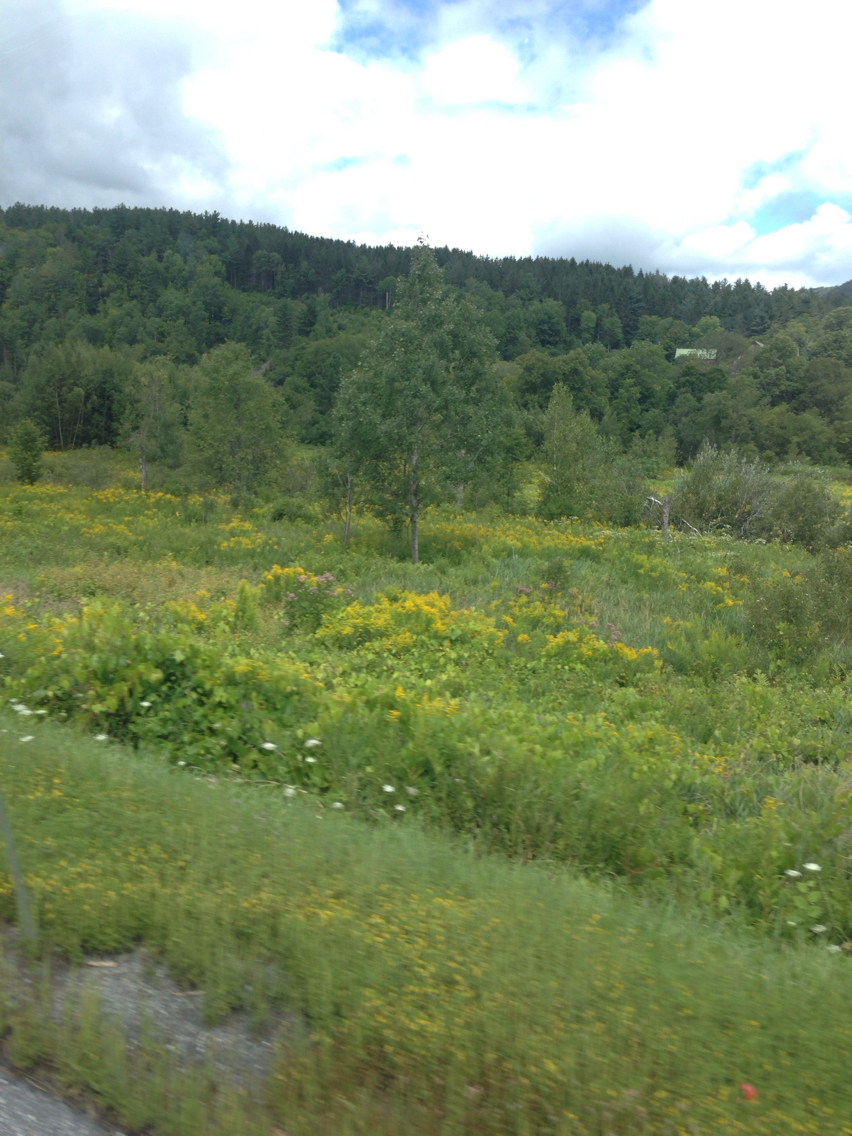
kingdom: Plantae
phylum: Tracheophyta
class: Magnoliopsida
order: Malpighiales
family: Salicaceae
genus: Populus
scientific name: Populus tremuloides
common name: Quaking aspen
